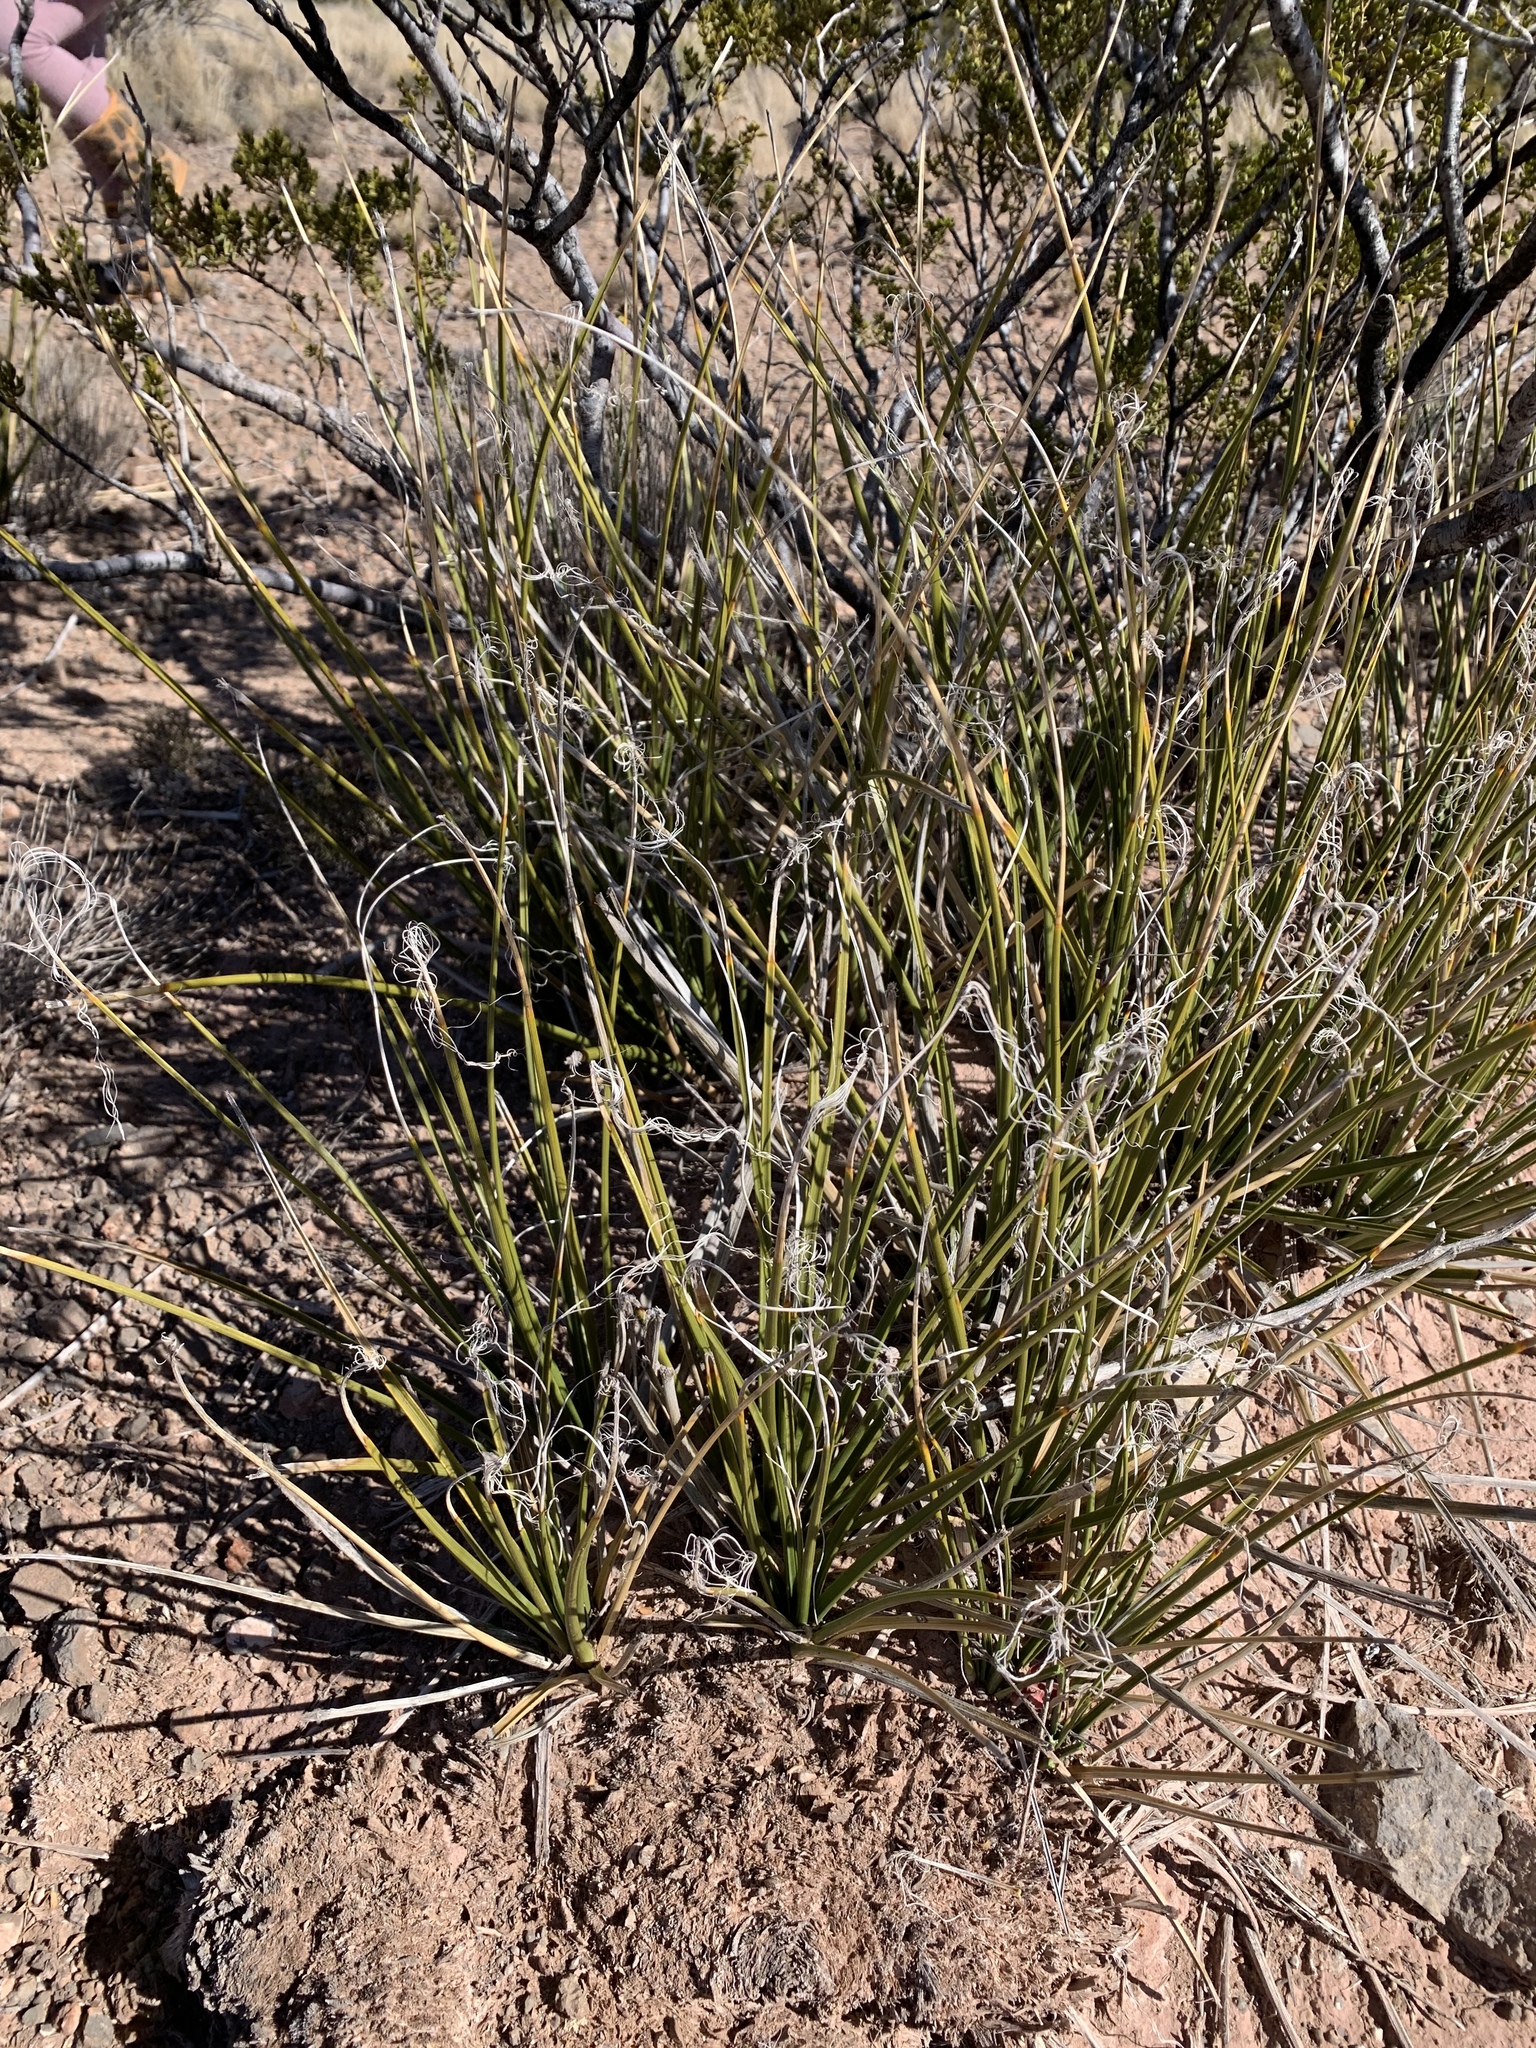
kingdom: Plantae
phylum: Tracheophyta
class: Liliopsida
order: Asparagales
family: Asparagaceae
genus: Nolina
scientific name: Nolina microcarpa
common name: Bear-grass
